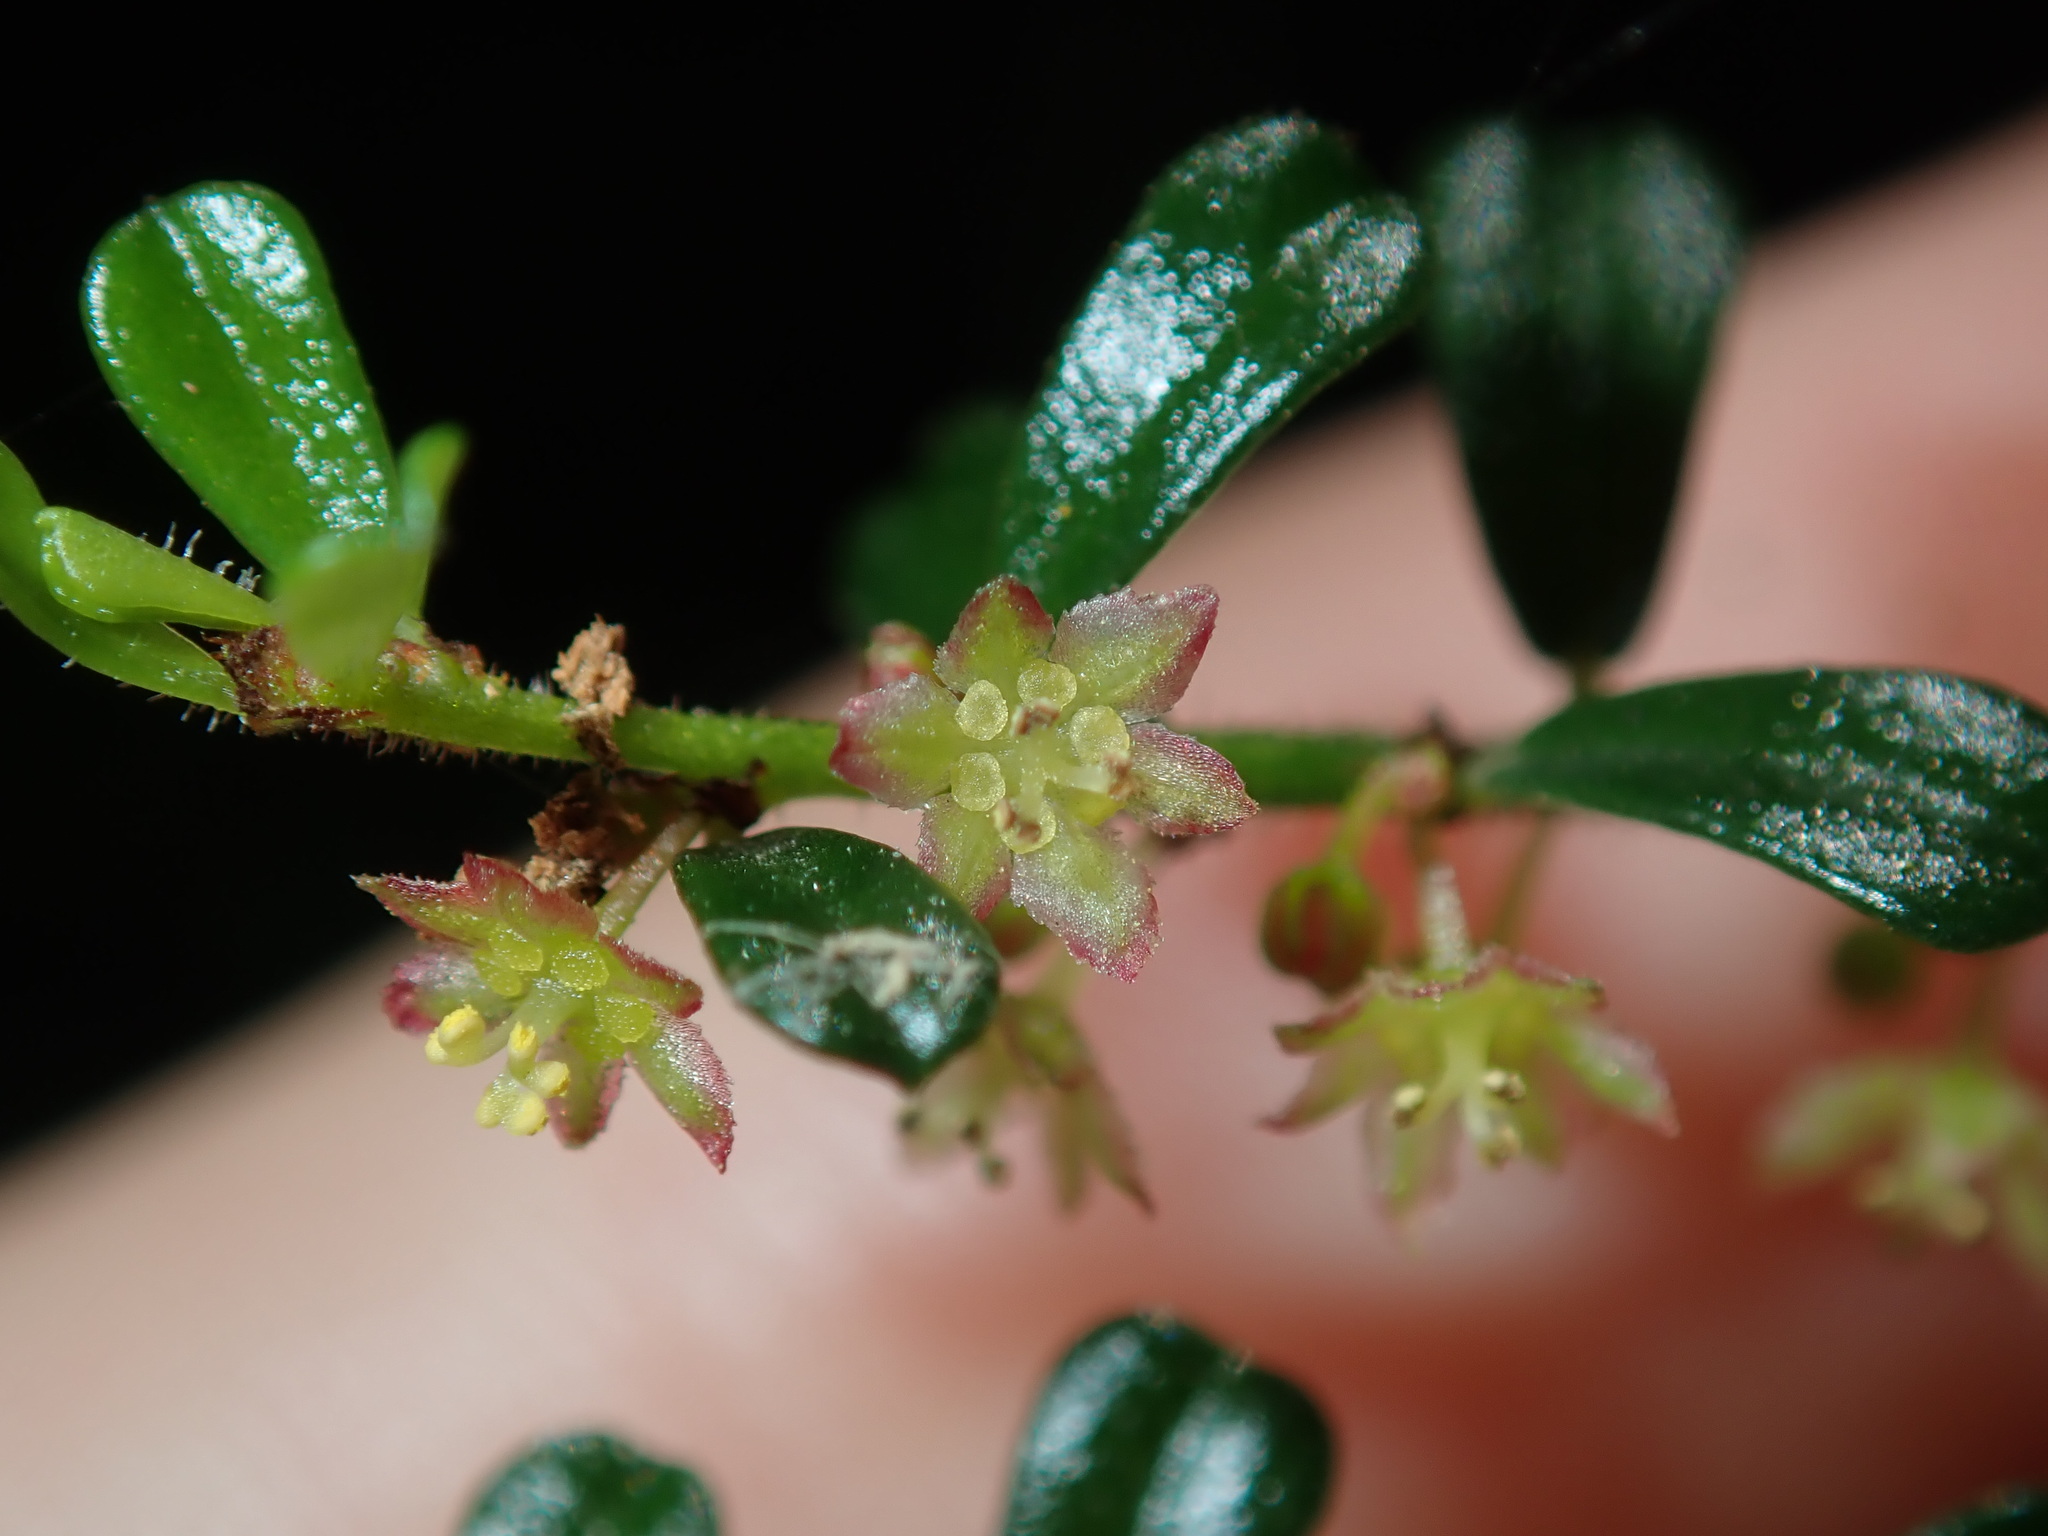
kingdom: Plantae
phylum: Tracheophyta
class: Magnoliopsida
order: Malpighiales
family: Phyllanthaceae
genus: Phyllanthus
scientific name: Phyllanthus hirtellus
